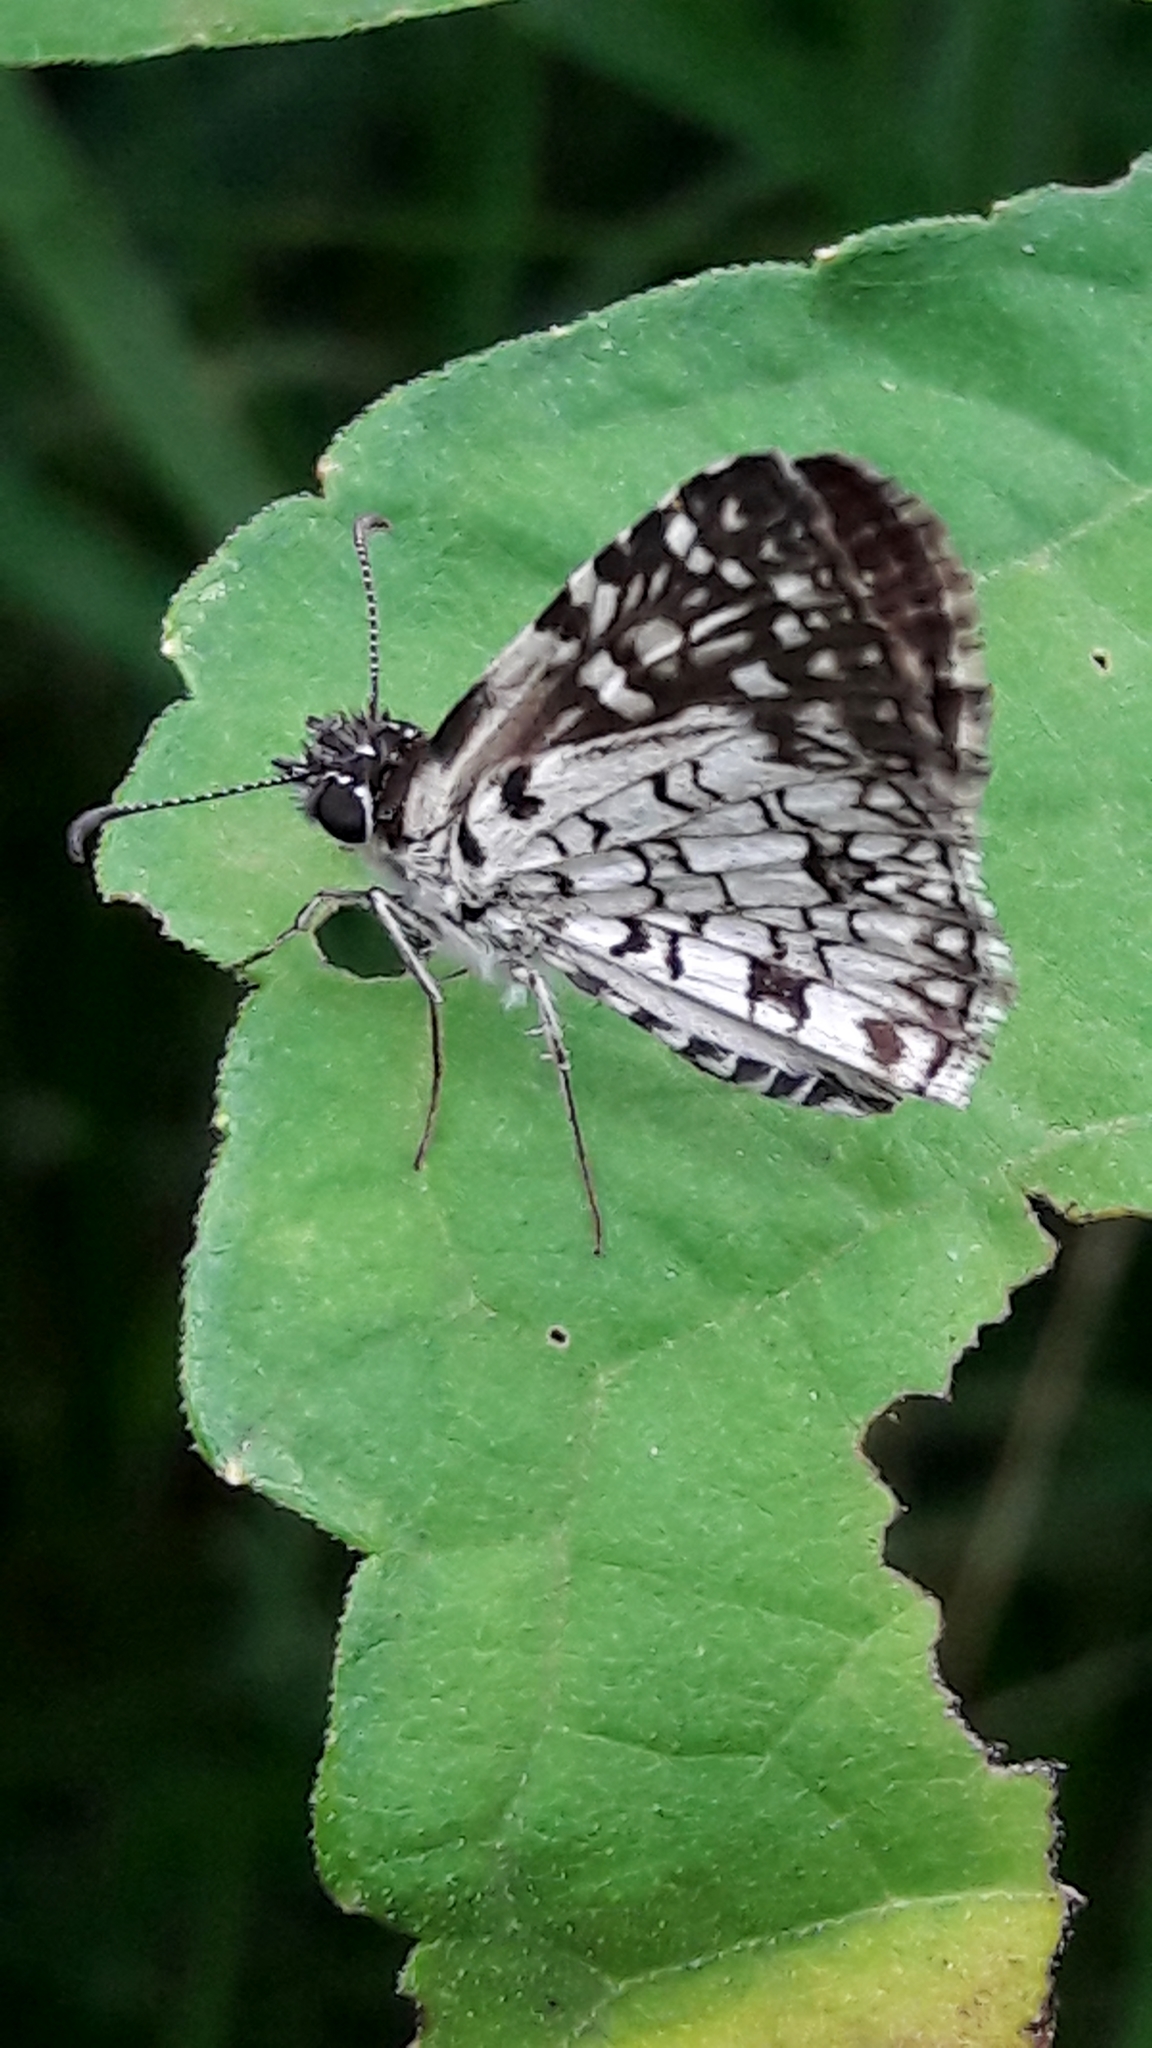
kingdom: Animalia
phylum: Arthropoda
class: Insecta
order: Lepidoptera
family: Hesperiidae
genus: Pyrgus
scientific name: Pyrgus oileus
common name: Tropical checkered-skipper
